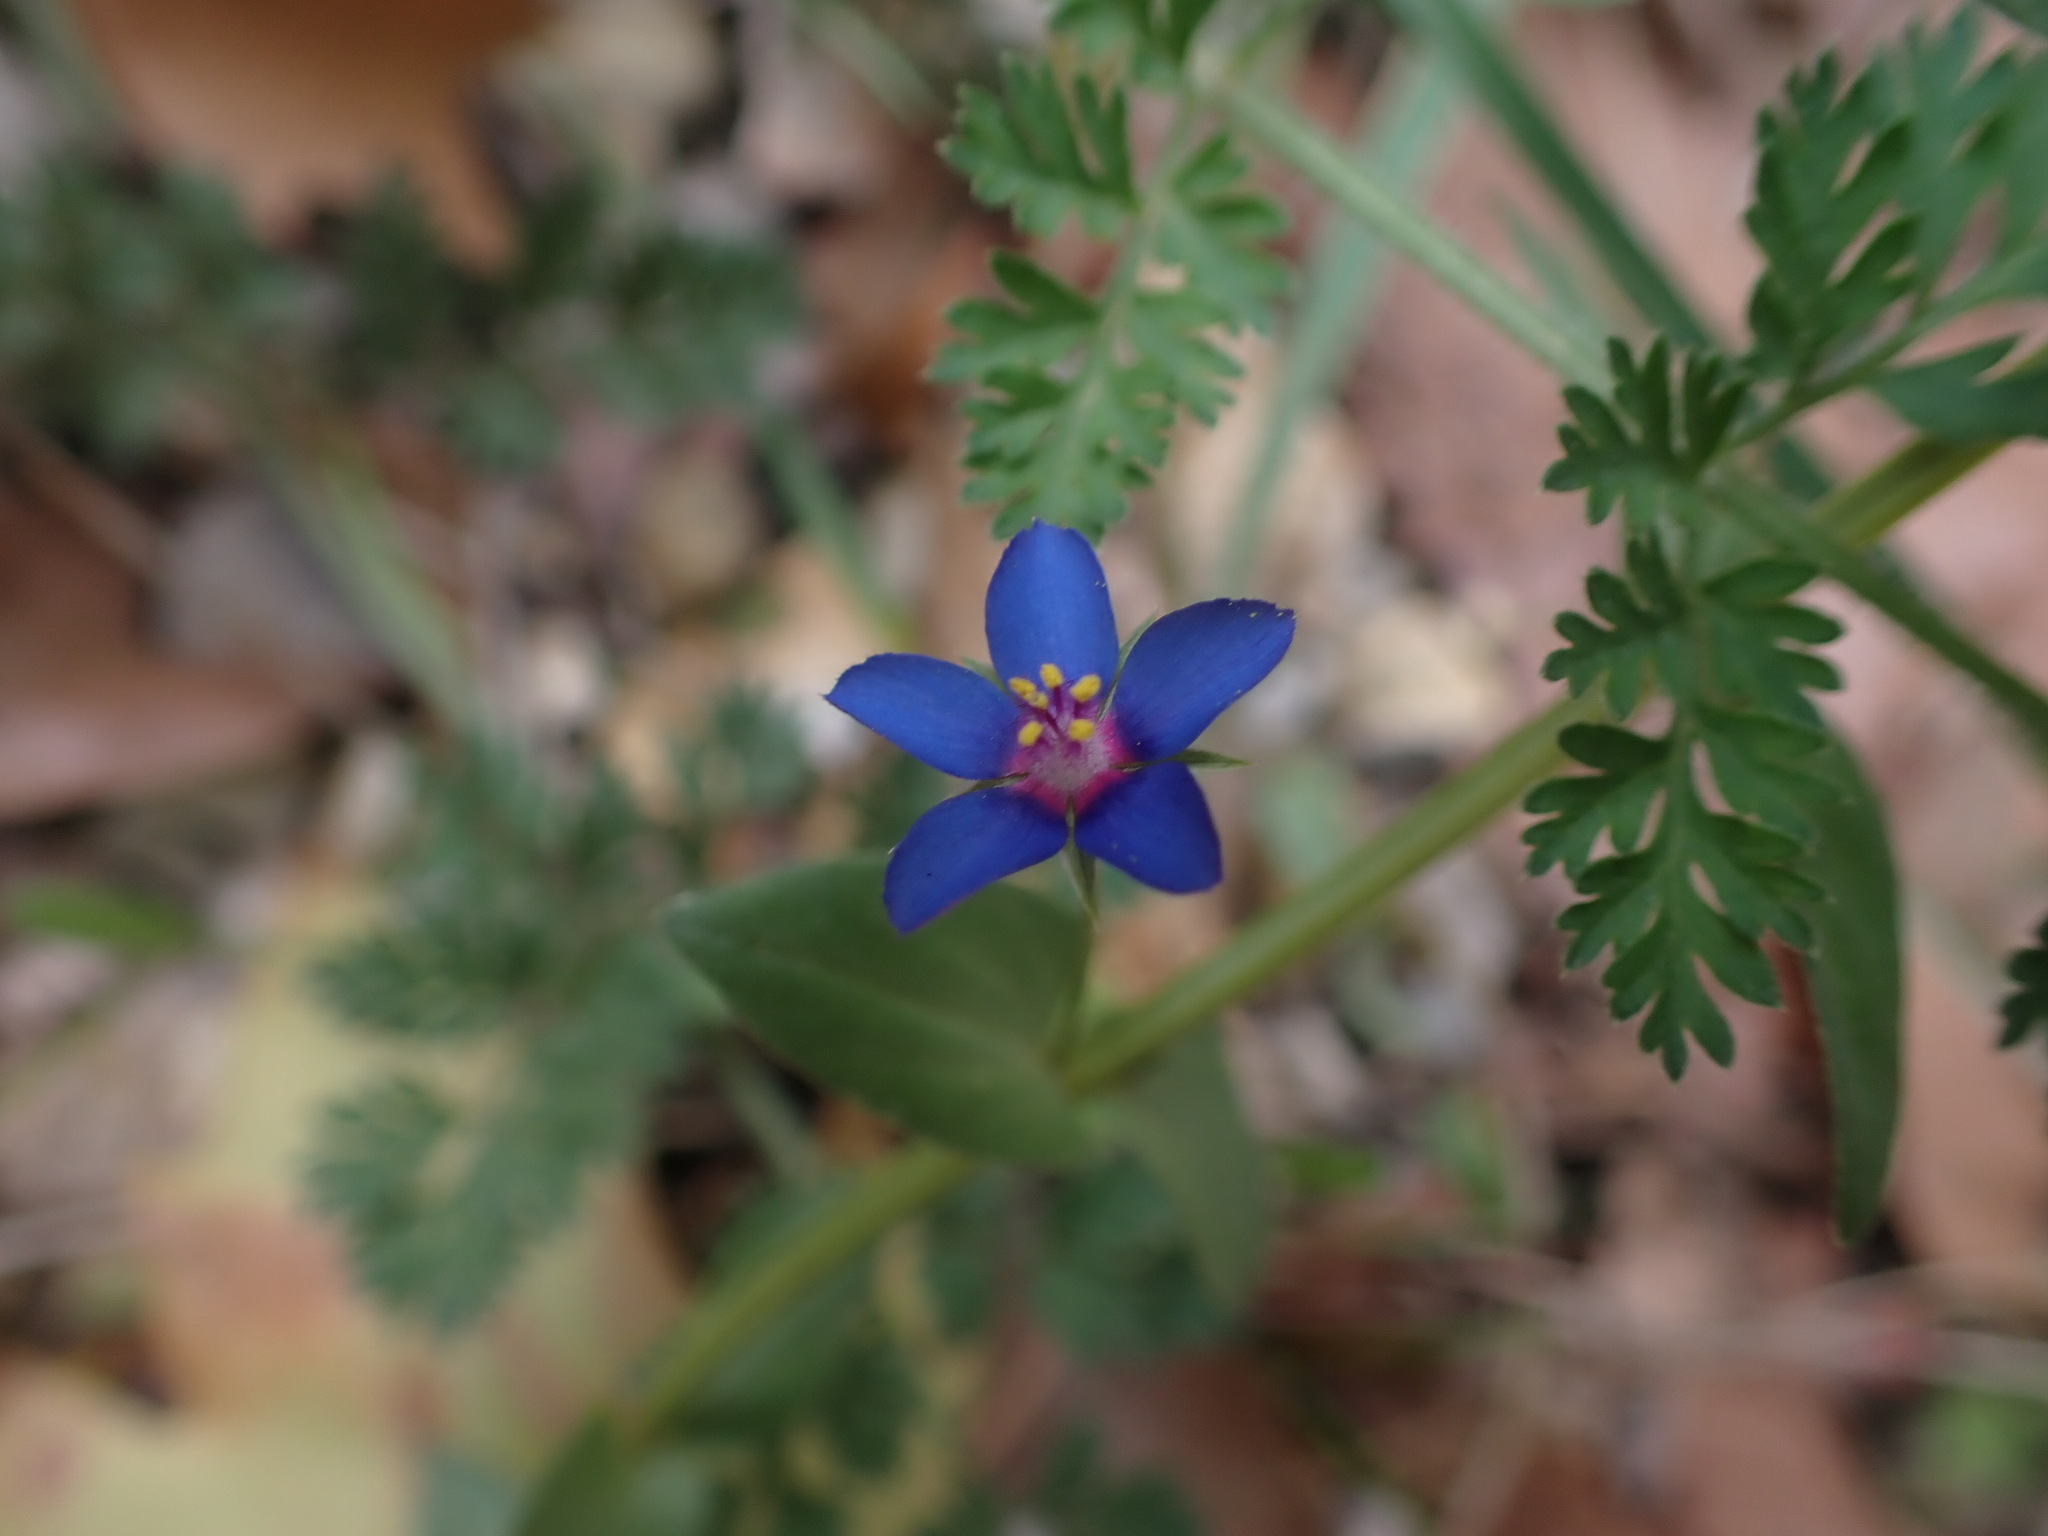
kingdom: Plantae
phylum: Tracheophyta
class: Magnoliopsida
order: Ericales
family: Primulaceae
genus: Lysimachia
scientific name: Lysimachia foemina
